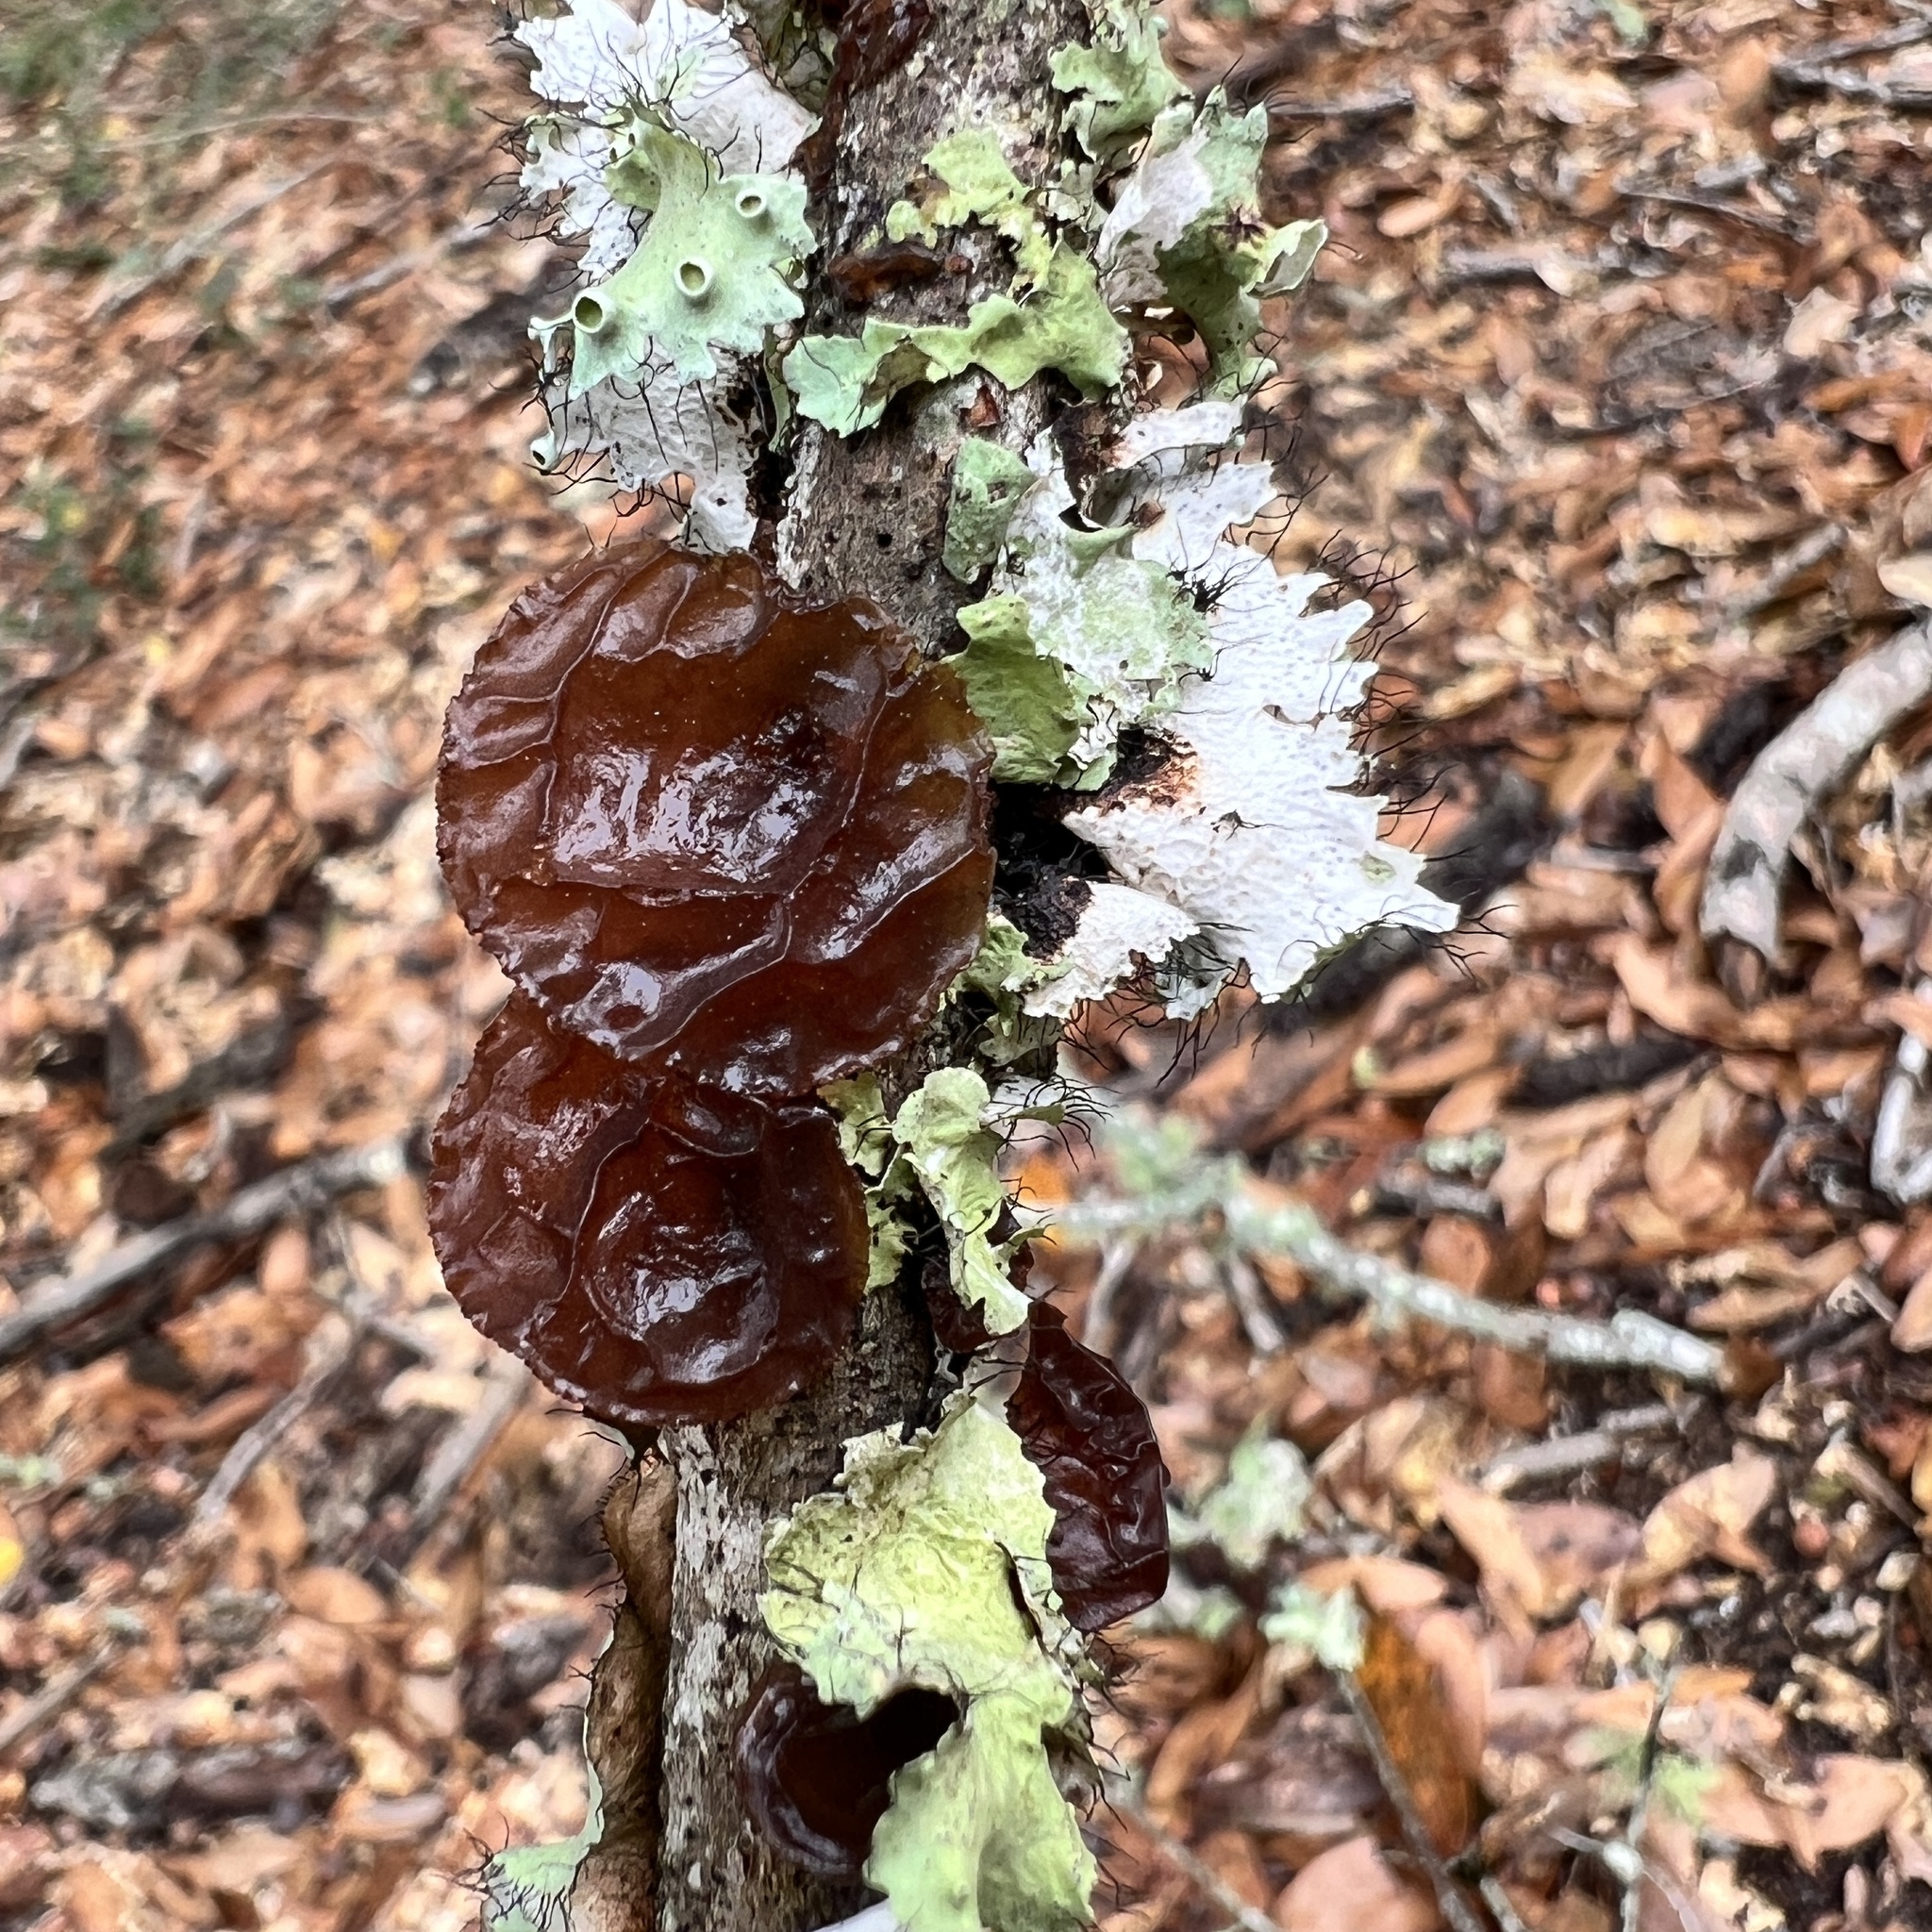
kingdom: Fungi
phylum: Basidiomycota
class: Agaricomycetes
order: Auriculariales
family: Auriculariaceae
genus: Exidia
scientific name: Exidia
